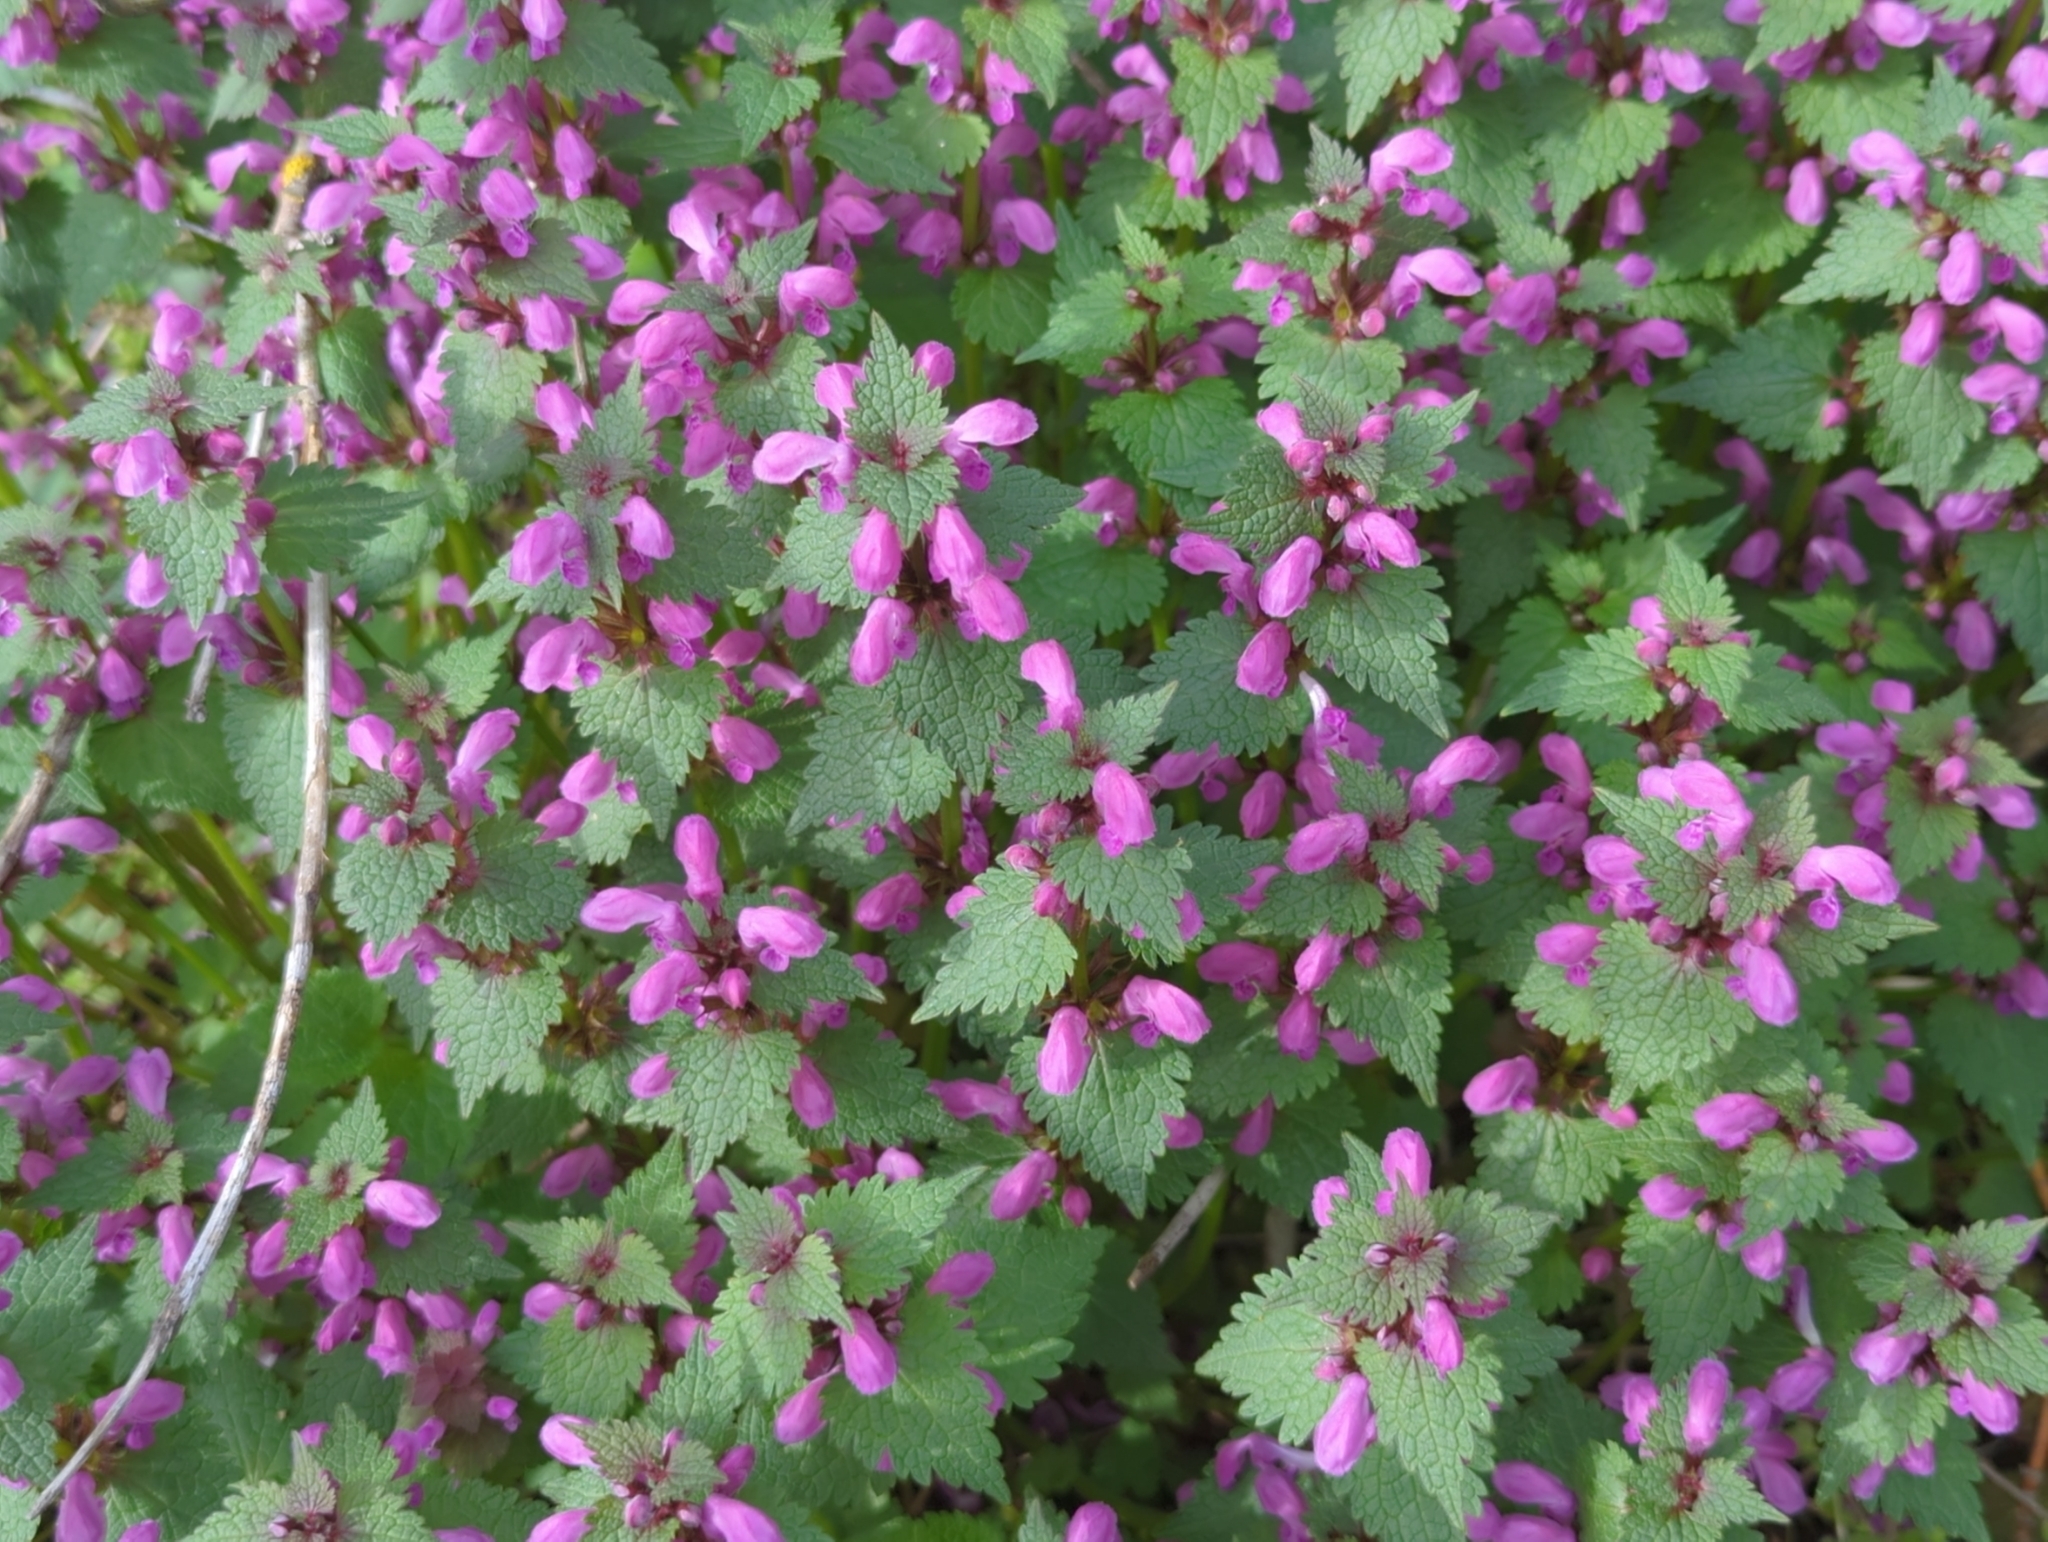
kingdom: Plantae
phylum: Tracheophyta
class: Magnoliopsida
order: Lamiales
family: Lamiaceae
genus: Lamium
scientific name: Lamium maculatum
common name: Spotted dead-nettle
